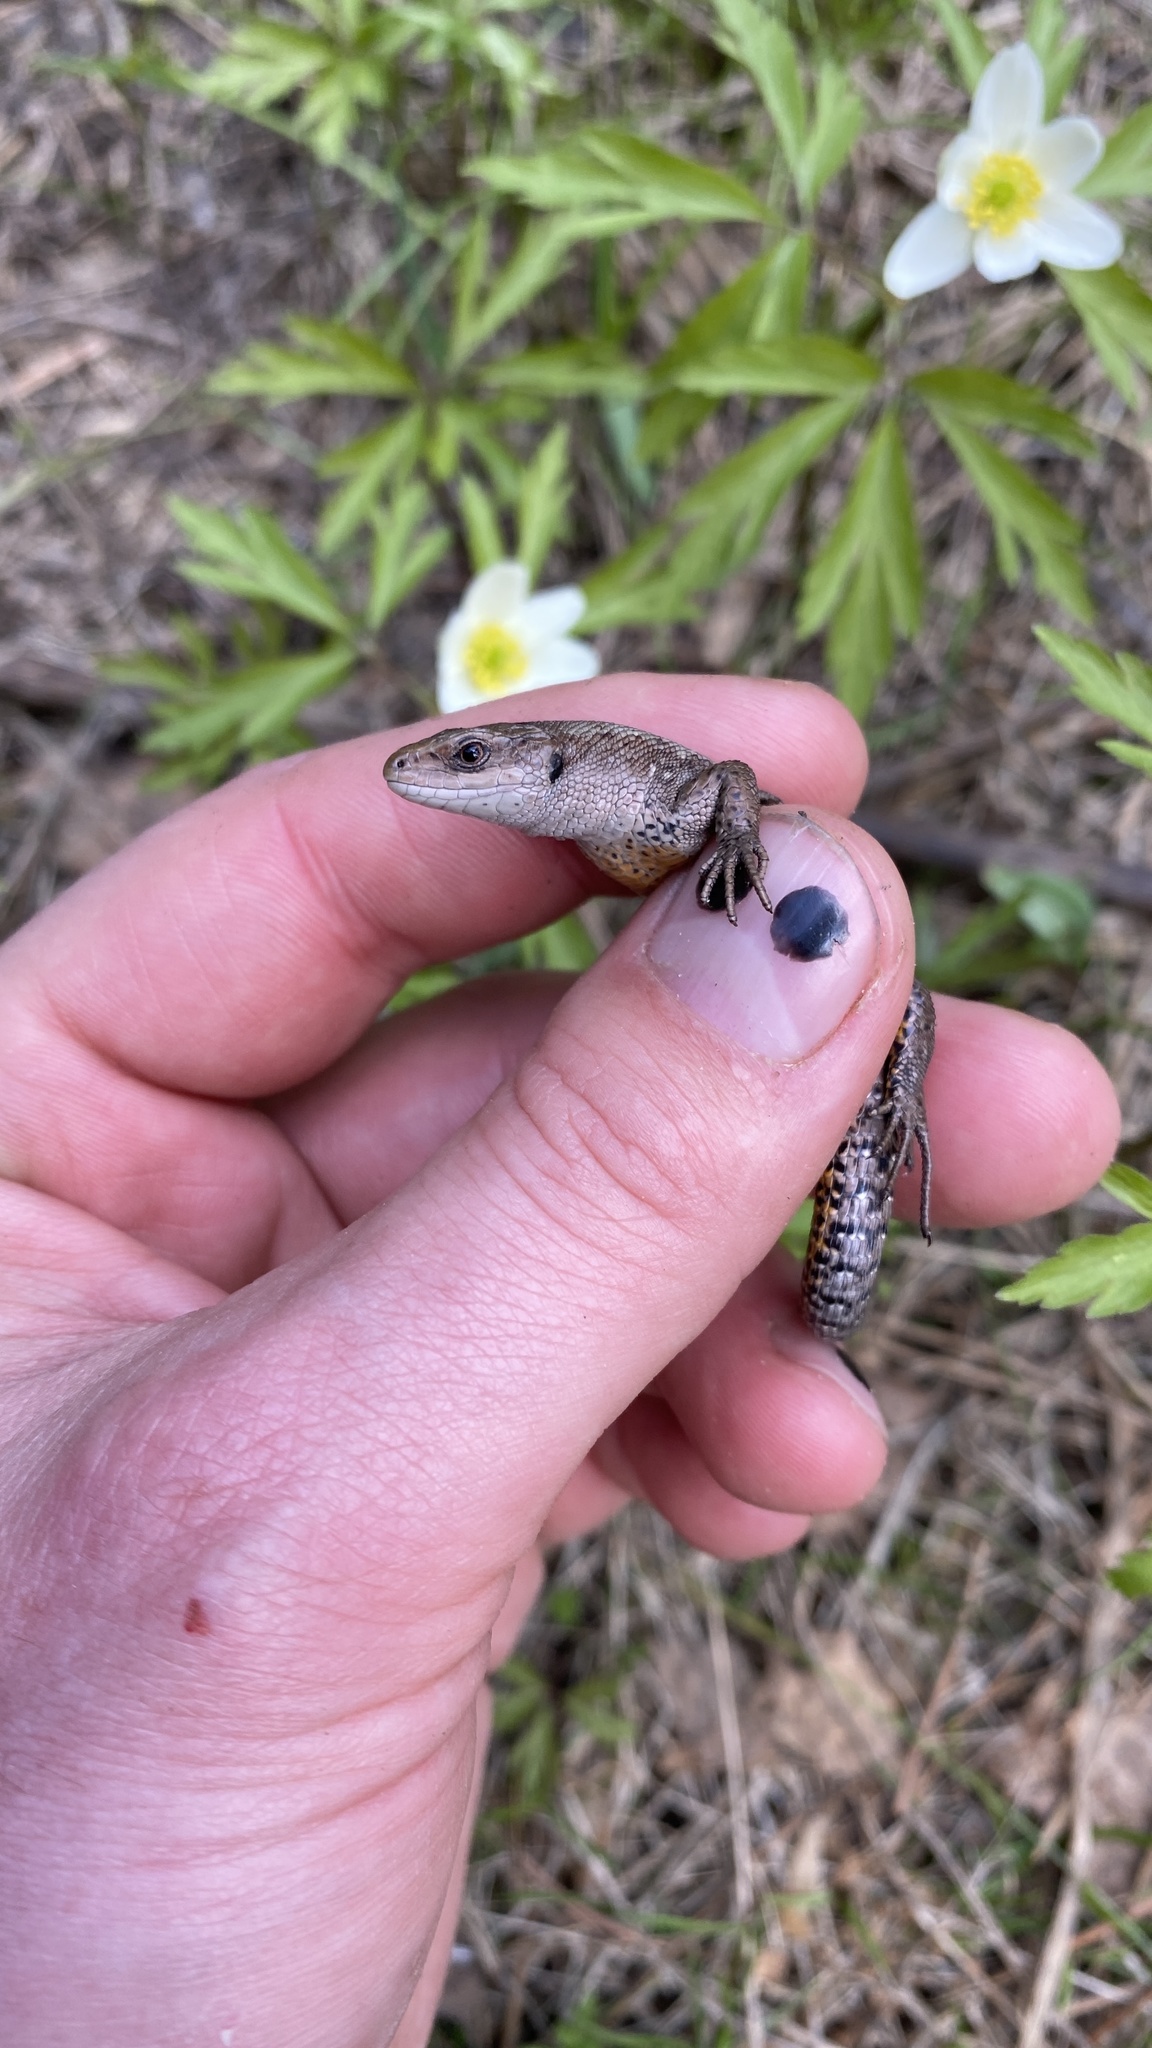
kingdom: Animalia
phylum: Chordata
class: Squamata
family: Lacertidae
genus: Zootoca
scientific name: Zootoca vivipara
